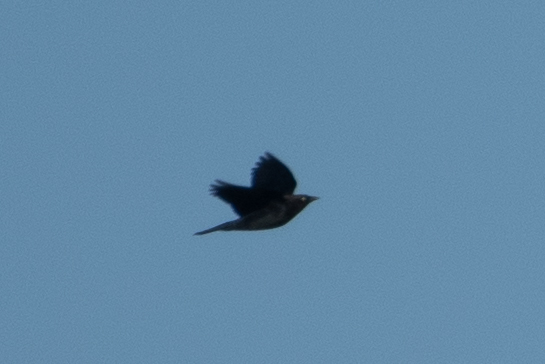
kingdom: Animalia
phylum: Chordata
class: Aves
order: Passeriformes
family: Icteridae
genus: Euphagus
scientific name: Euphagus cyanocephalus
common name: Brewer's blackbird
